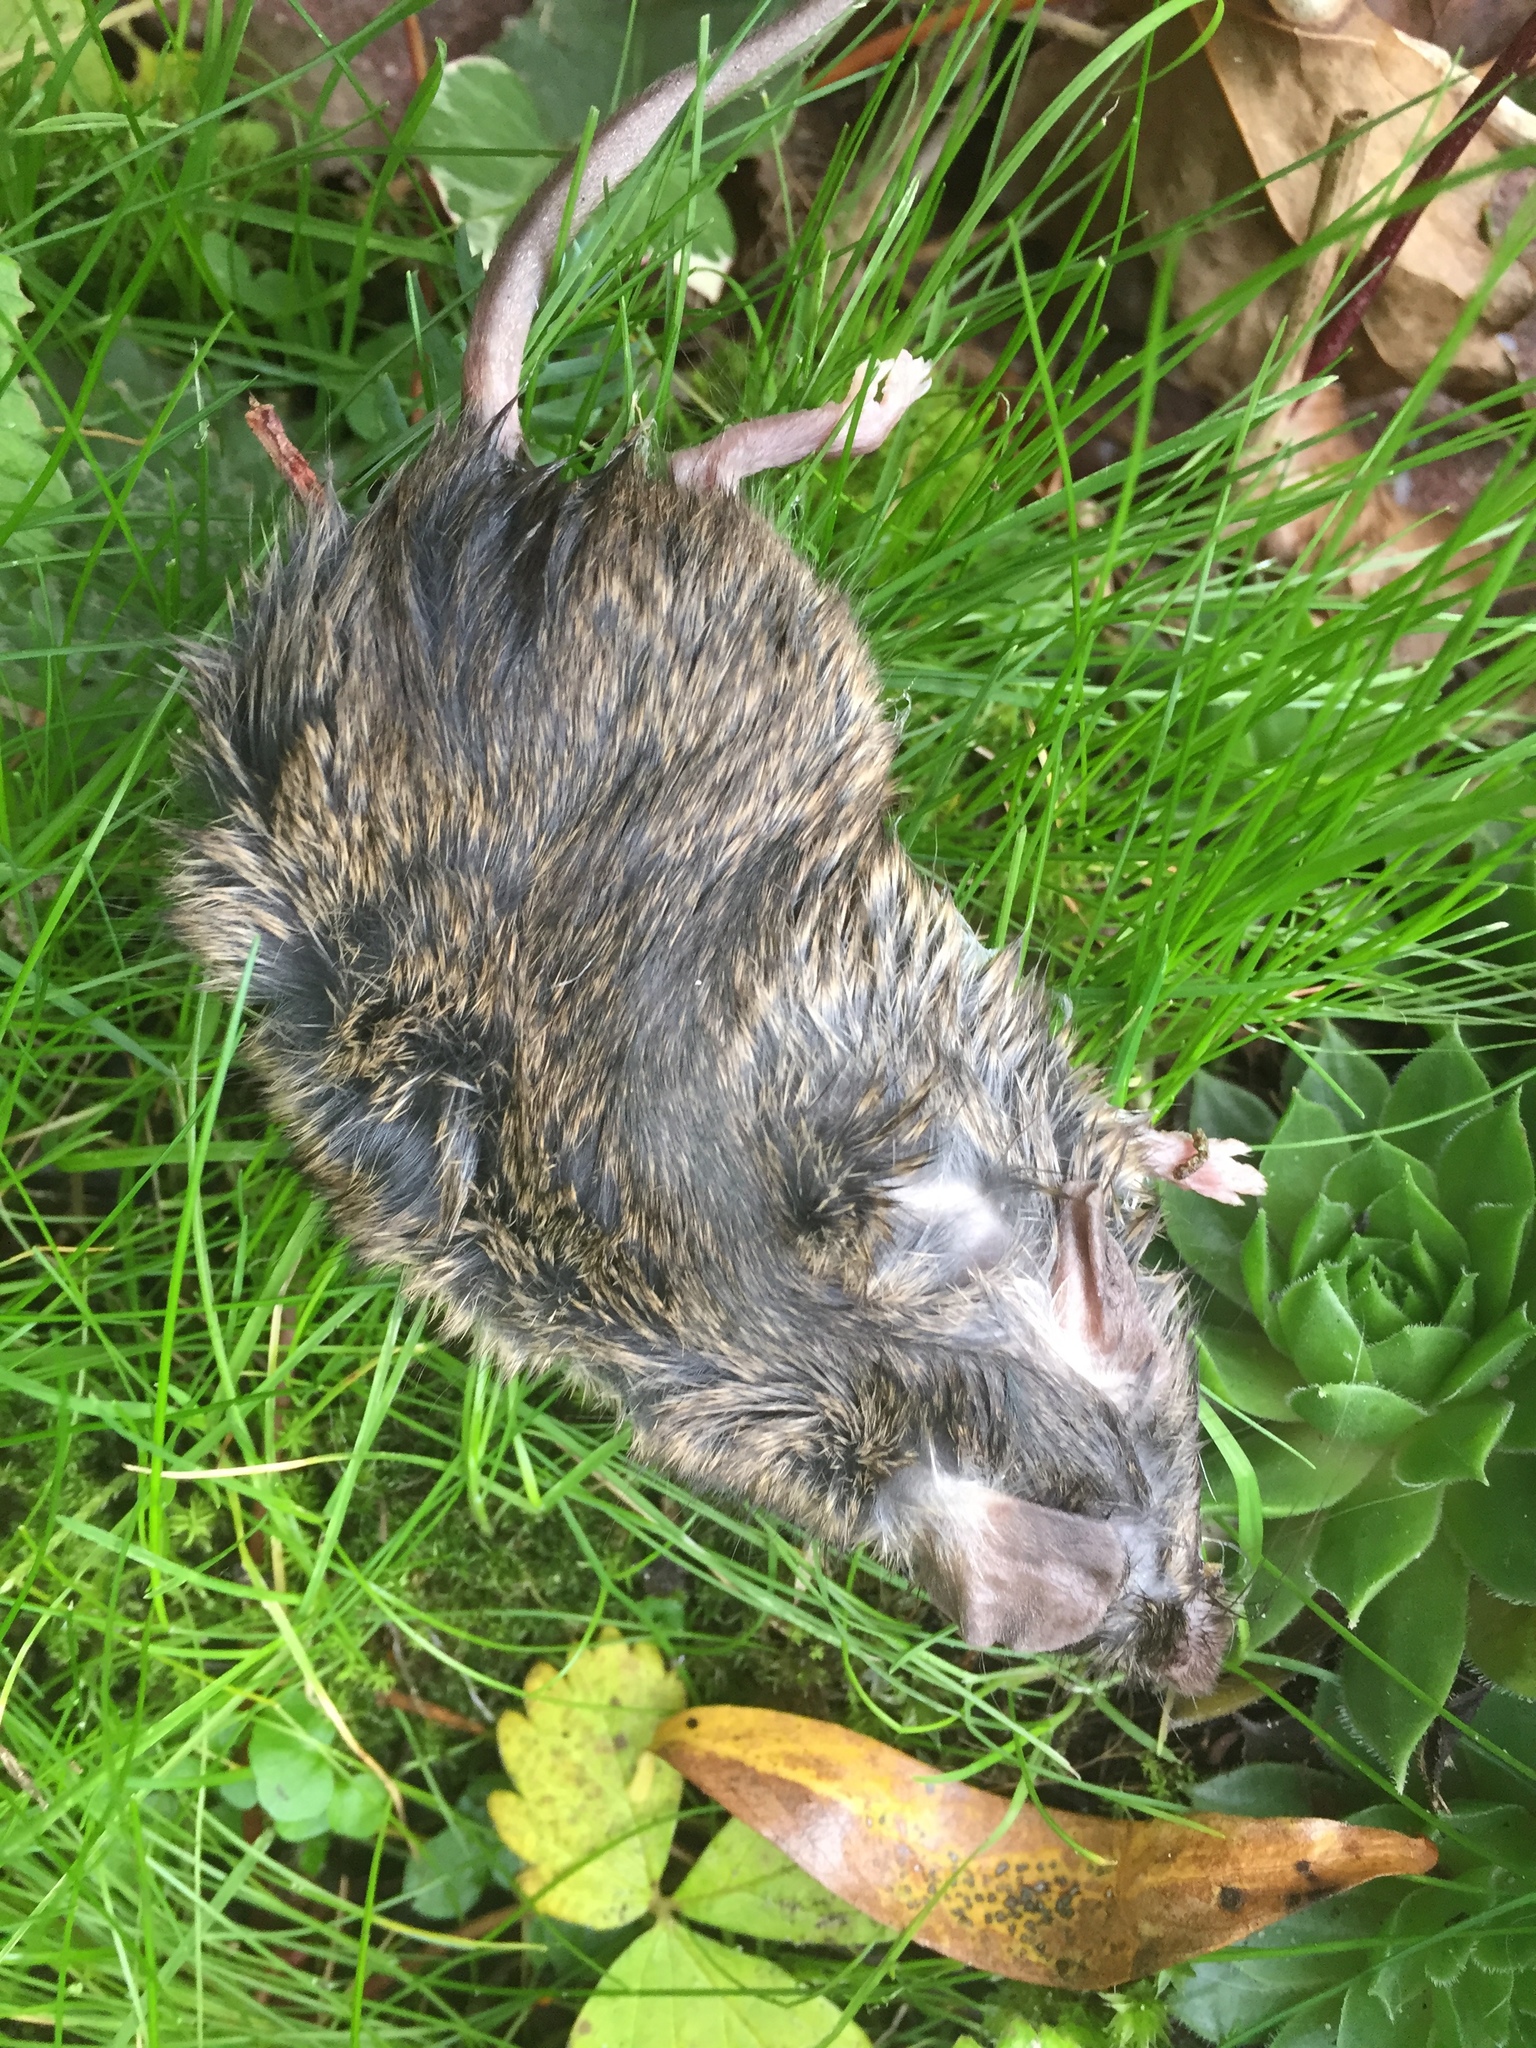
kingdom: Animalia
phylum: Chordata
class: Mammalia
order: Rodentia
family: Muridae
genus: Mus
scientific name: Mus musculus
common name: House mouse
